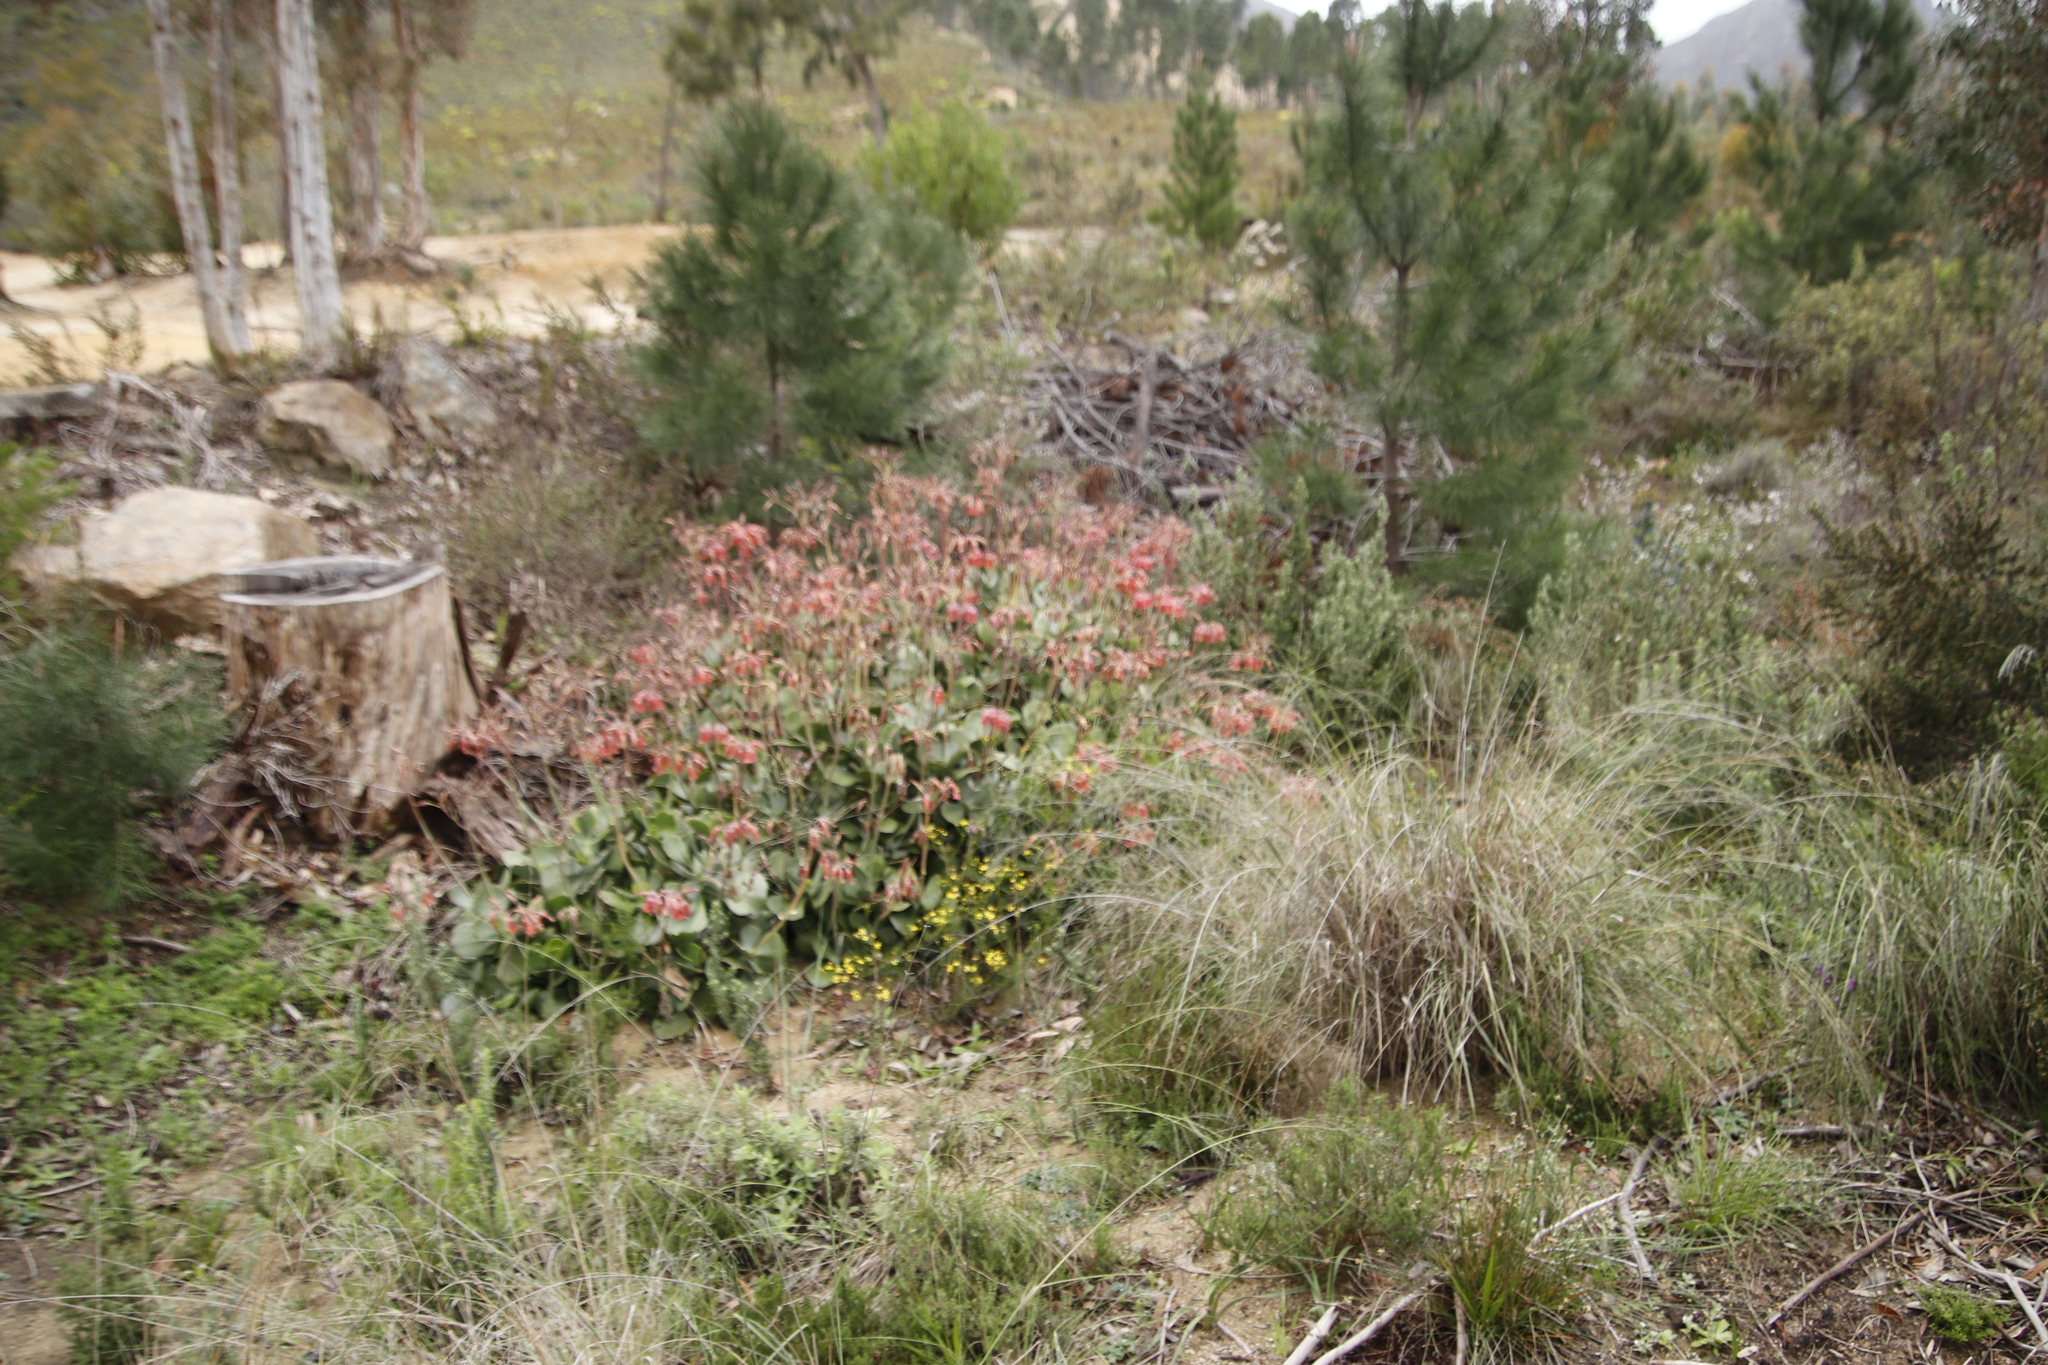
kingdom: Plantae
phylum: Tracheophyta
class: Pinopsida
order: Pinales
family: Pinaceae
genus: Pinus
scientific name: Pinus pinaster
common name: Maritime pine
